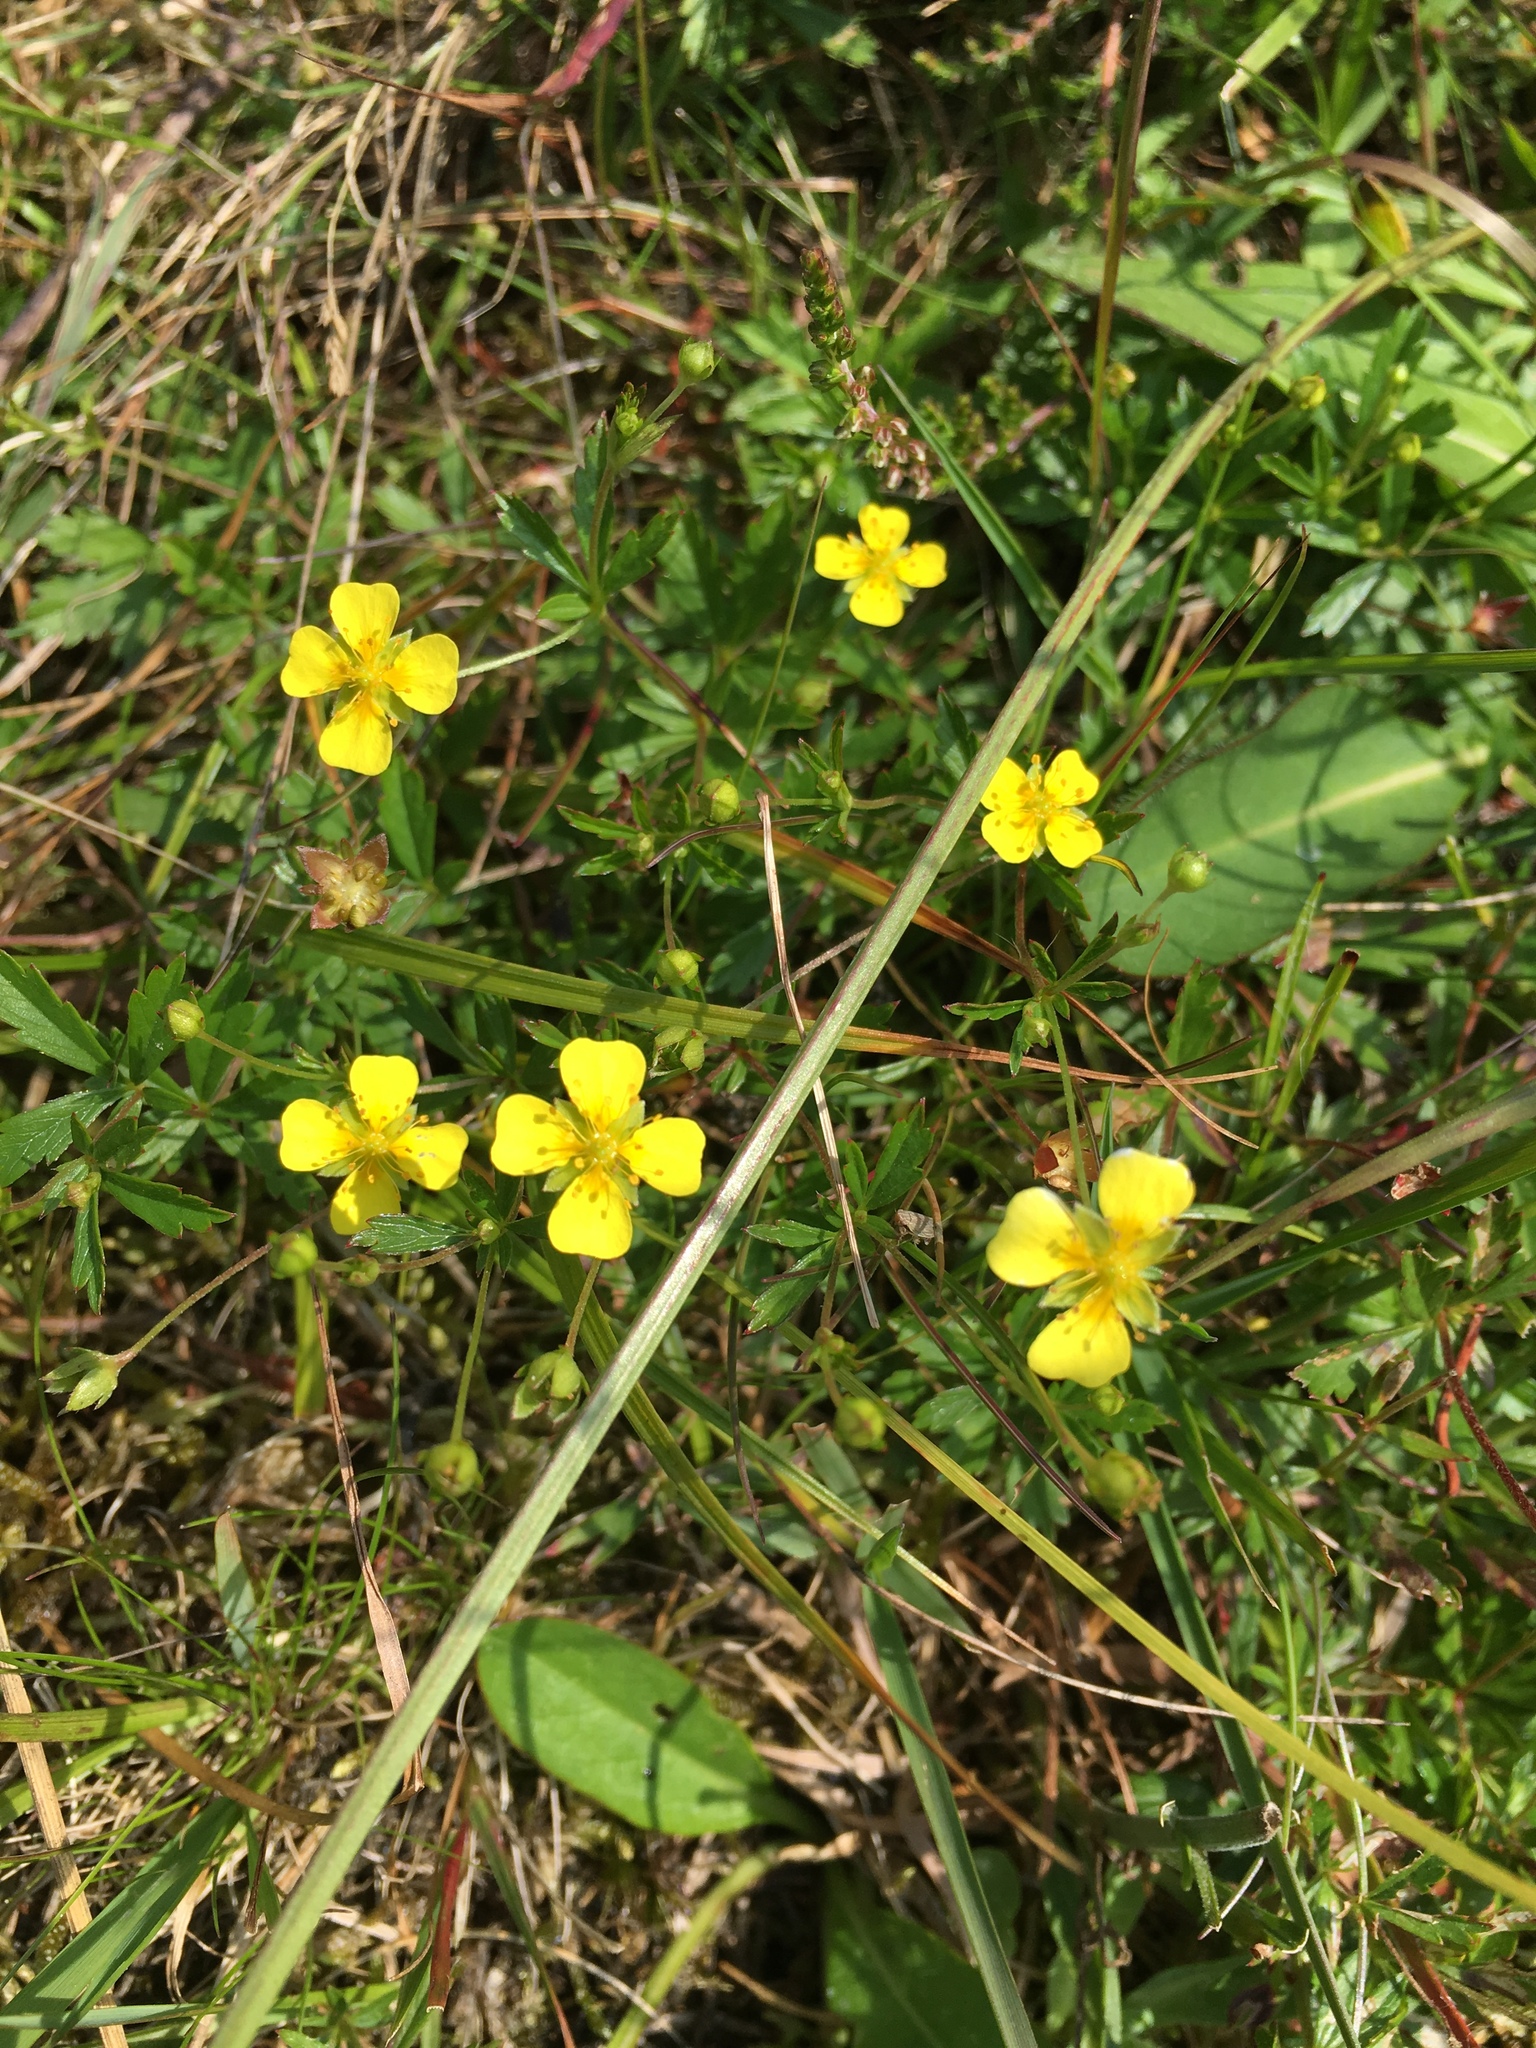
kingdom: Plantae
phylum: Tracheophyta
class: Magnoliopsida
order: Rosales
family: Rosaceae
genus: Potentilla
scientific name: Potentilla erecta
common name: Tormentil
